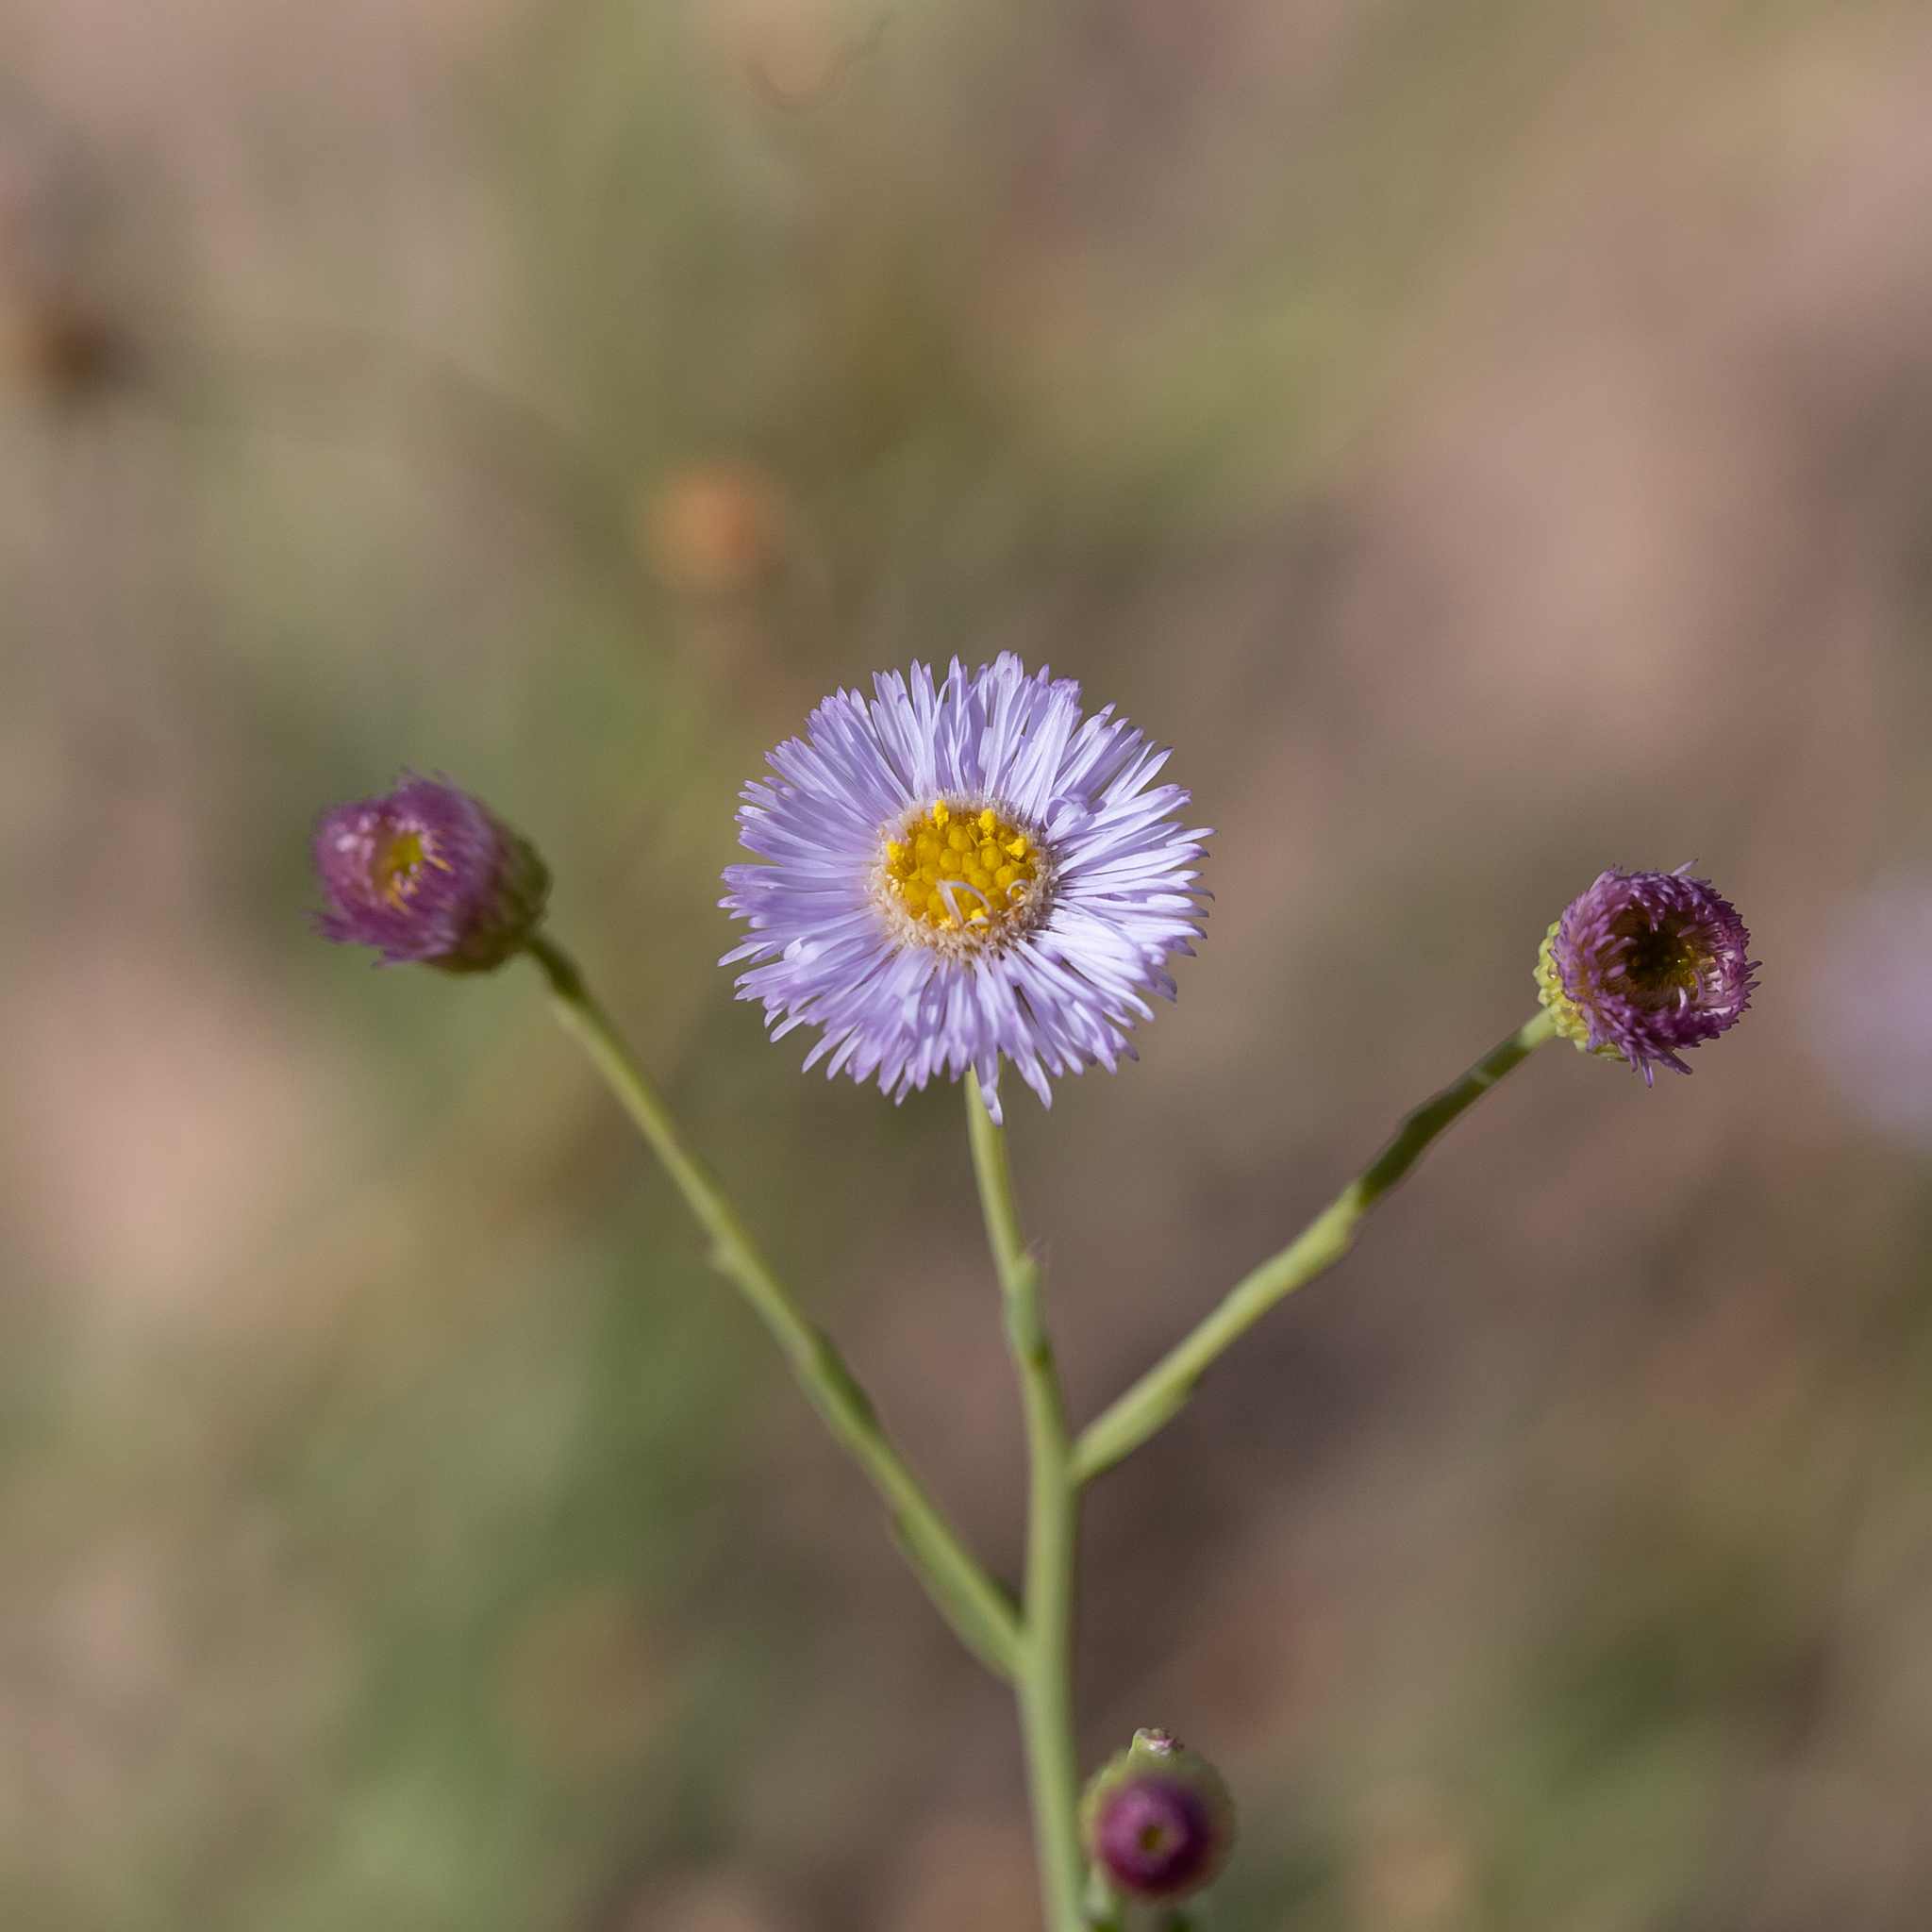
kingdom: Plantae
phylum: Tracheophyta
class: Magnoliopsida
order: Asterales
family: Asteraceae
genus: Minuria
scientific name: Minuria integerrima
